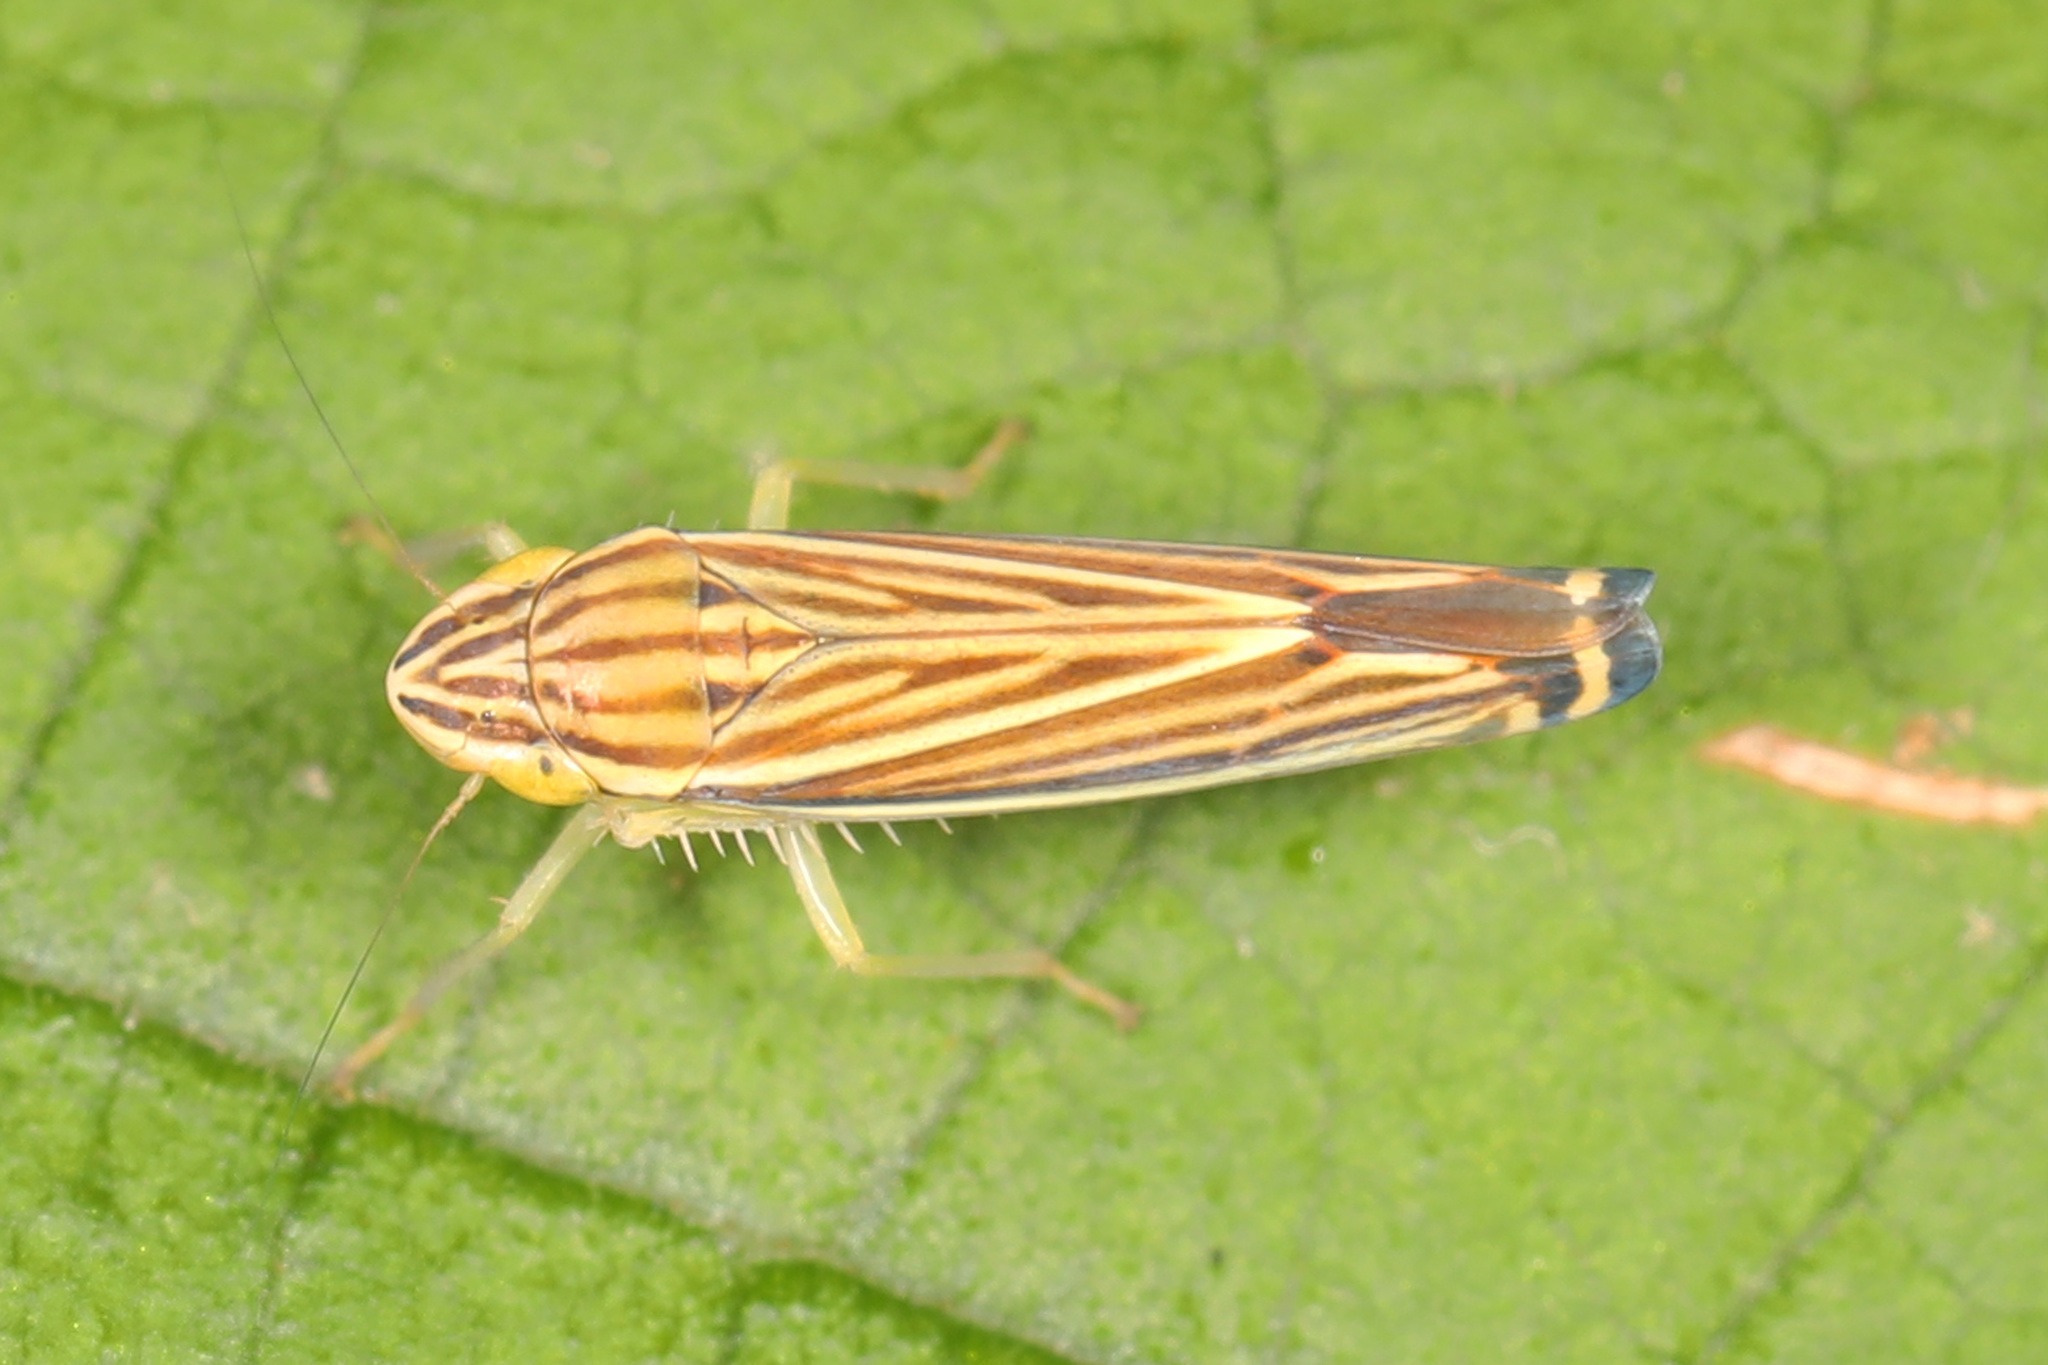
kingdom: Animalia
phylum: Arthropoda
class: Insecta
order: Hemiptera
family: Cicadellidae
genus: Sibovia
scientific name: Sibovia occatoria
